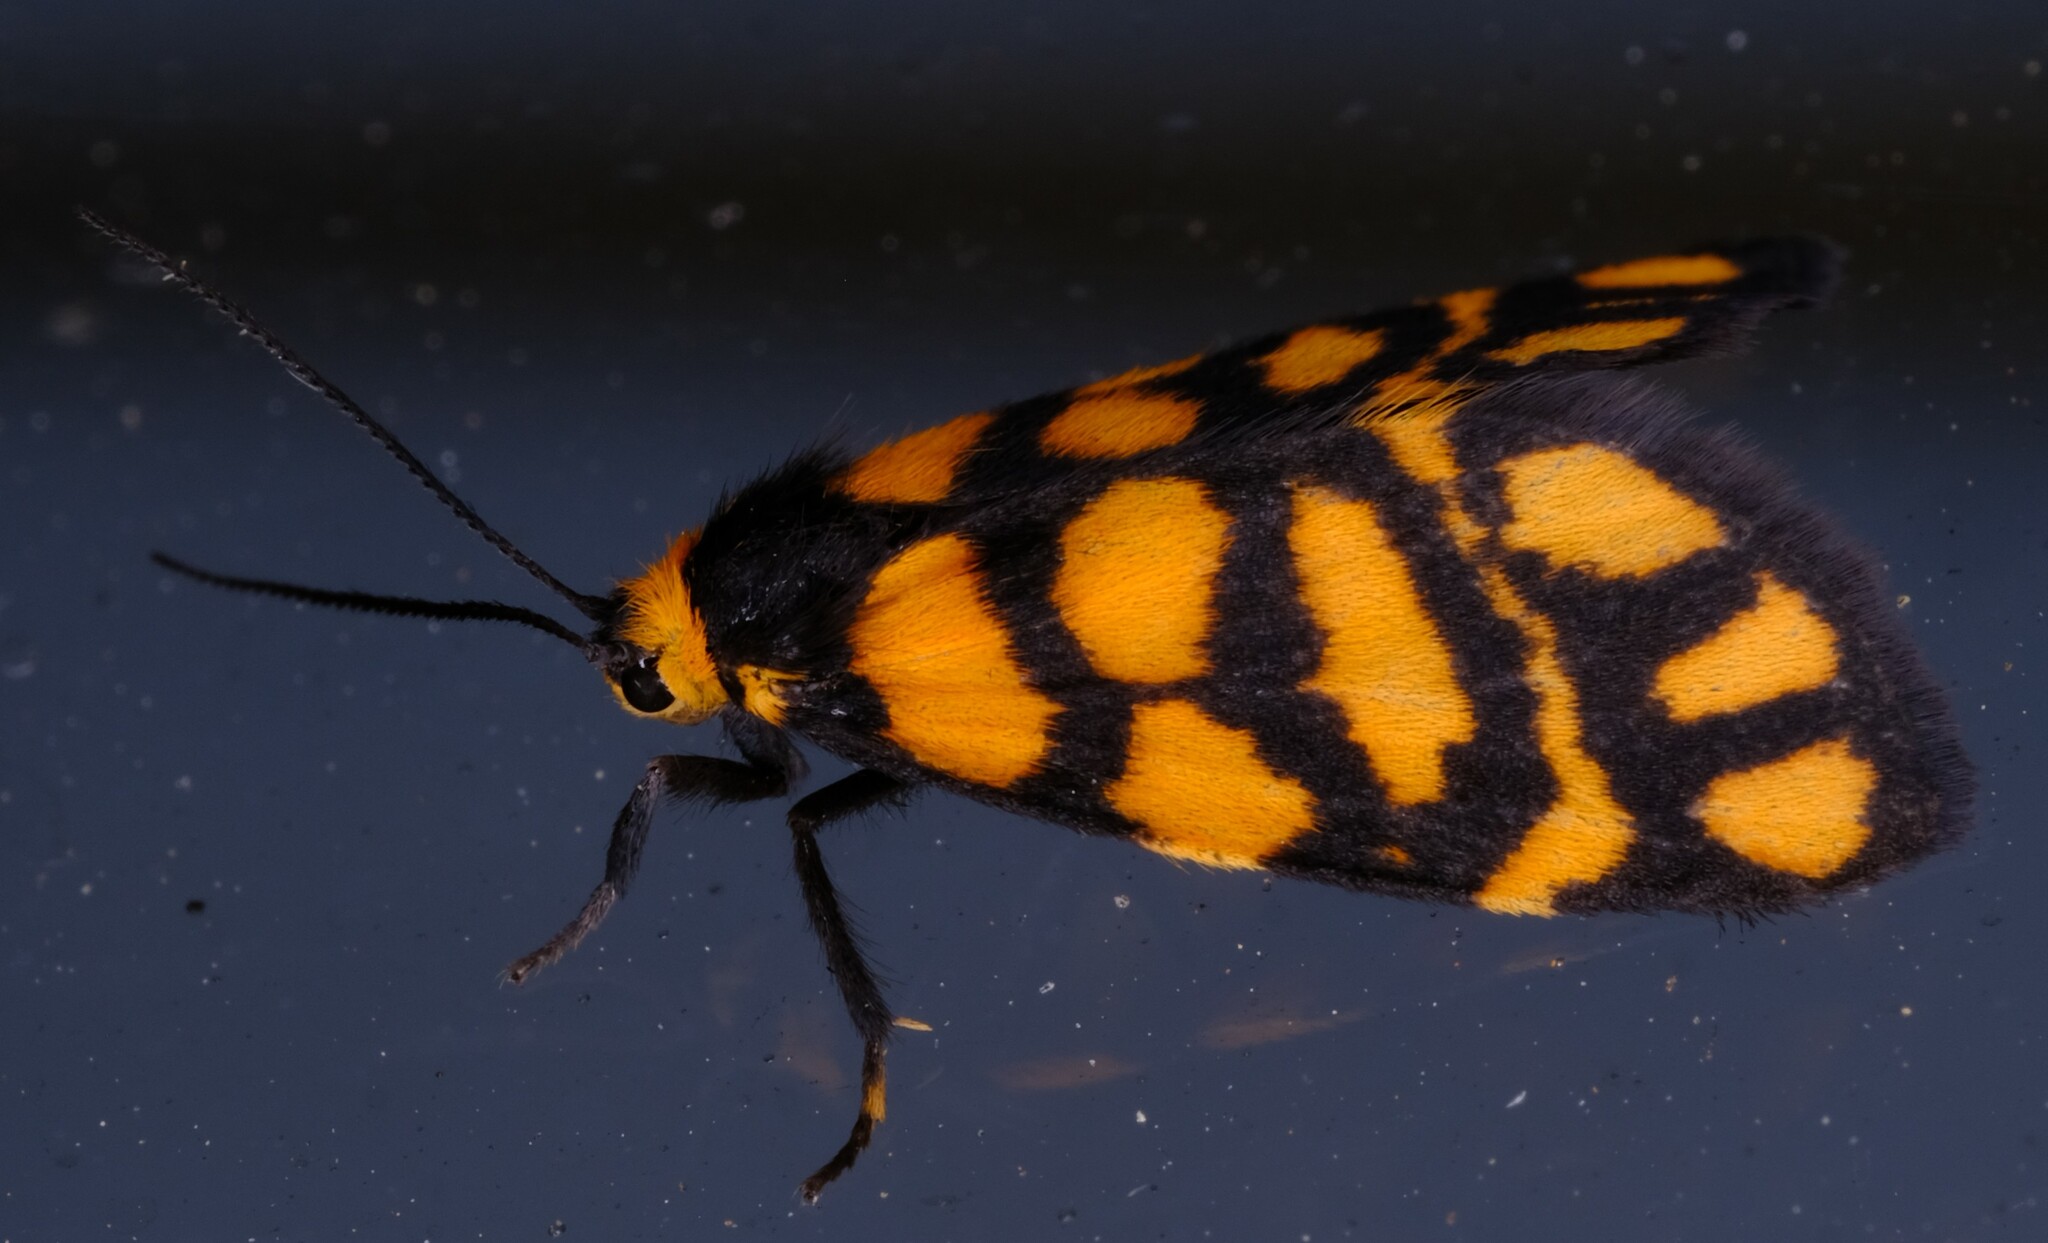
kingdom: Animalia
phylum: Arthropoda
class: Insecta
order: Lepidoptera
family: Erebidae
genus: Asura
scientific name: Asura lydia
